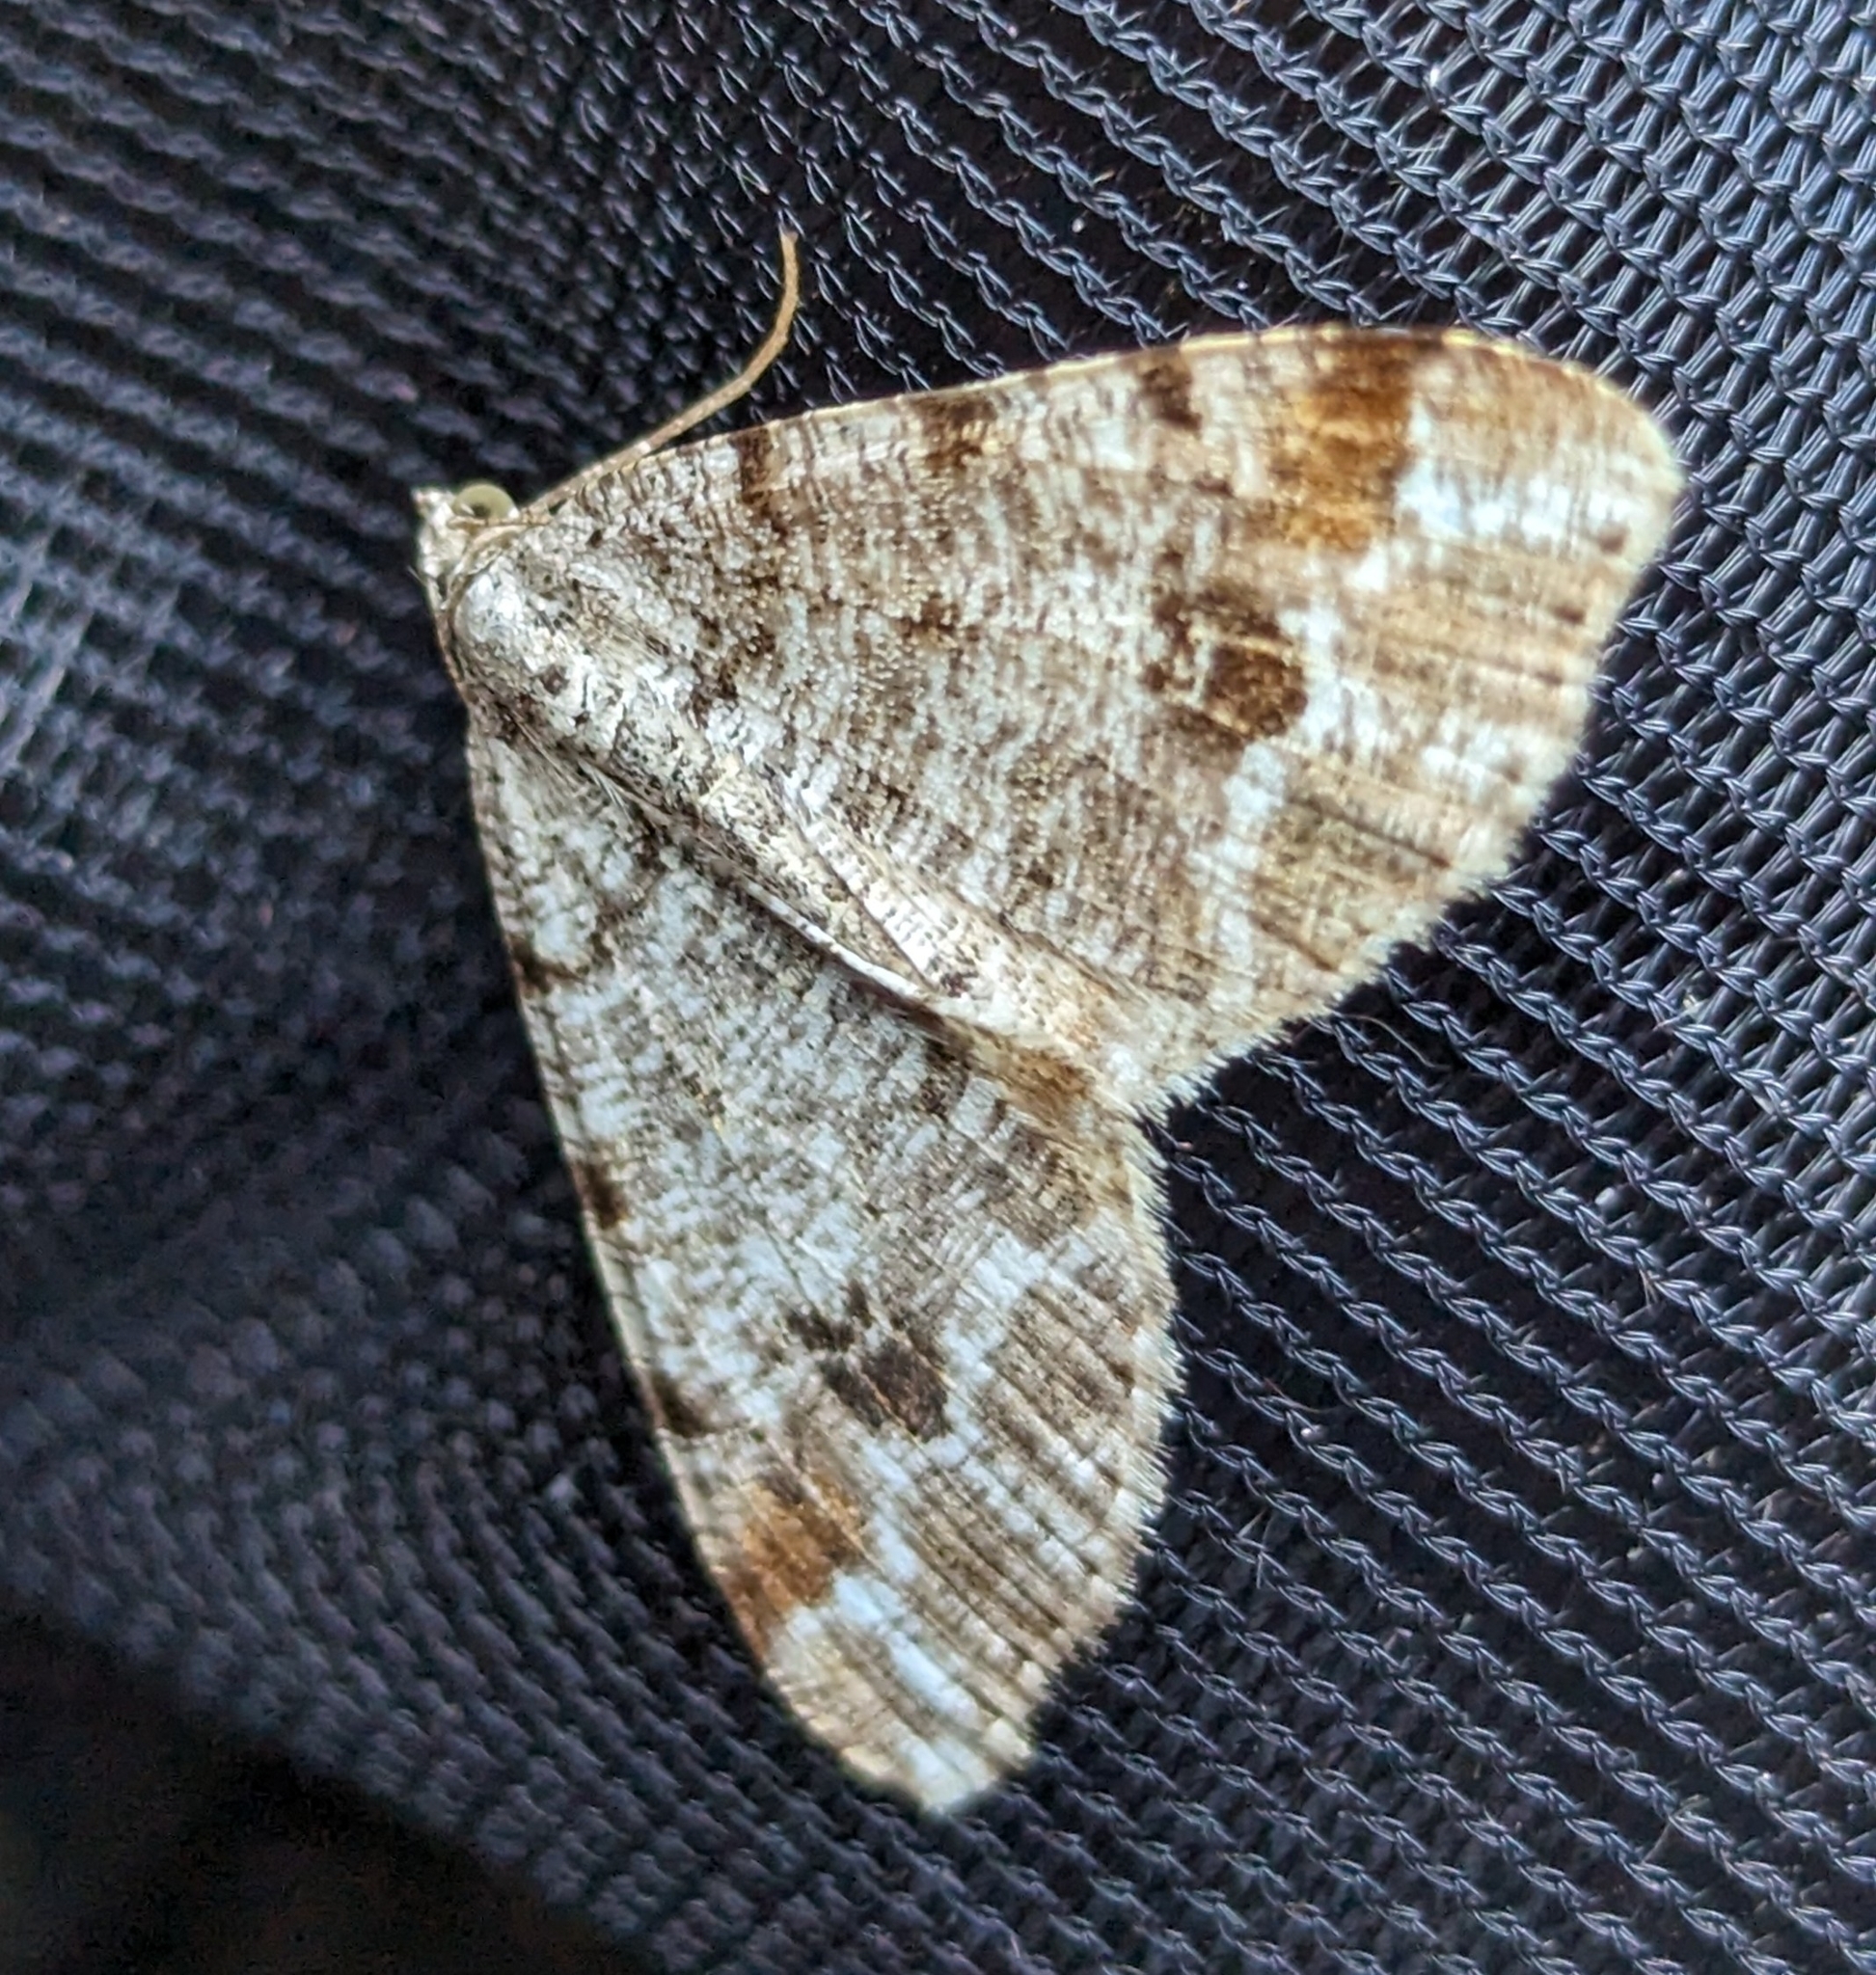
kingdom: Animalia
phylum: Arthropoda
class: Insecta
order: Lepidoptera
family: Geometridae
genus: Macaria
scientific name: Macaria signaria
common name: Dusky peacock
